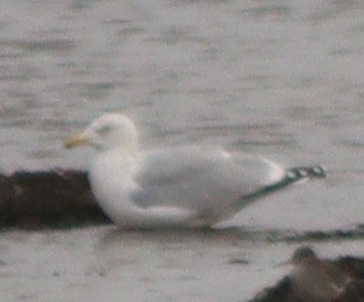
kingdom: Animalia
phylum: Chordata
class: Aves
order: Charadriiformes
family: Laridae
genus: Larus
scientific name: Larus argentatus
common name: Herring gull
